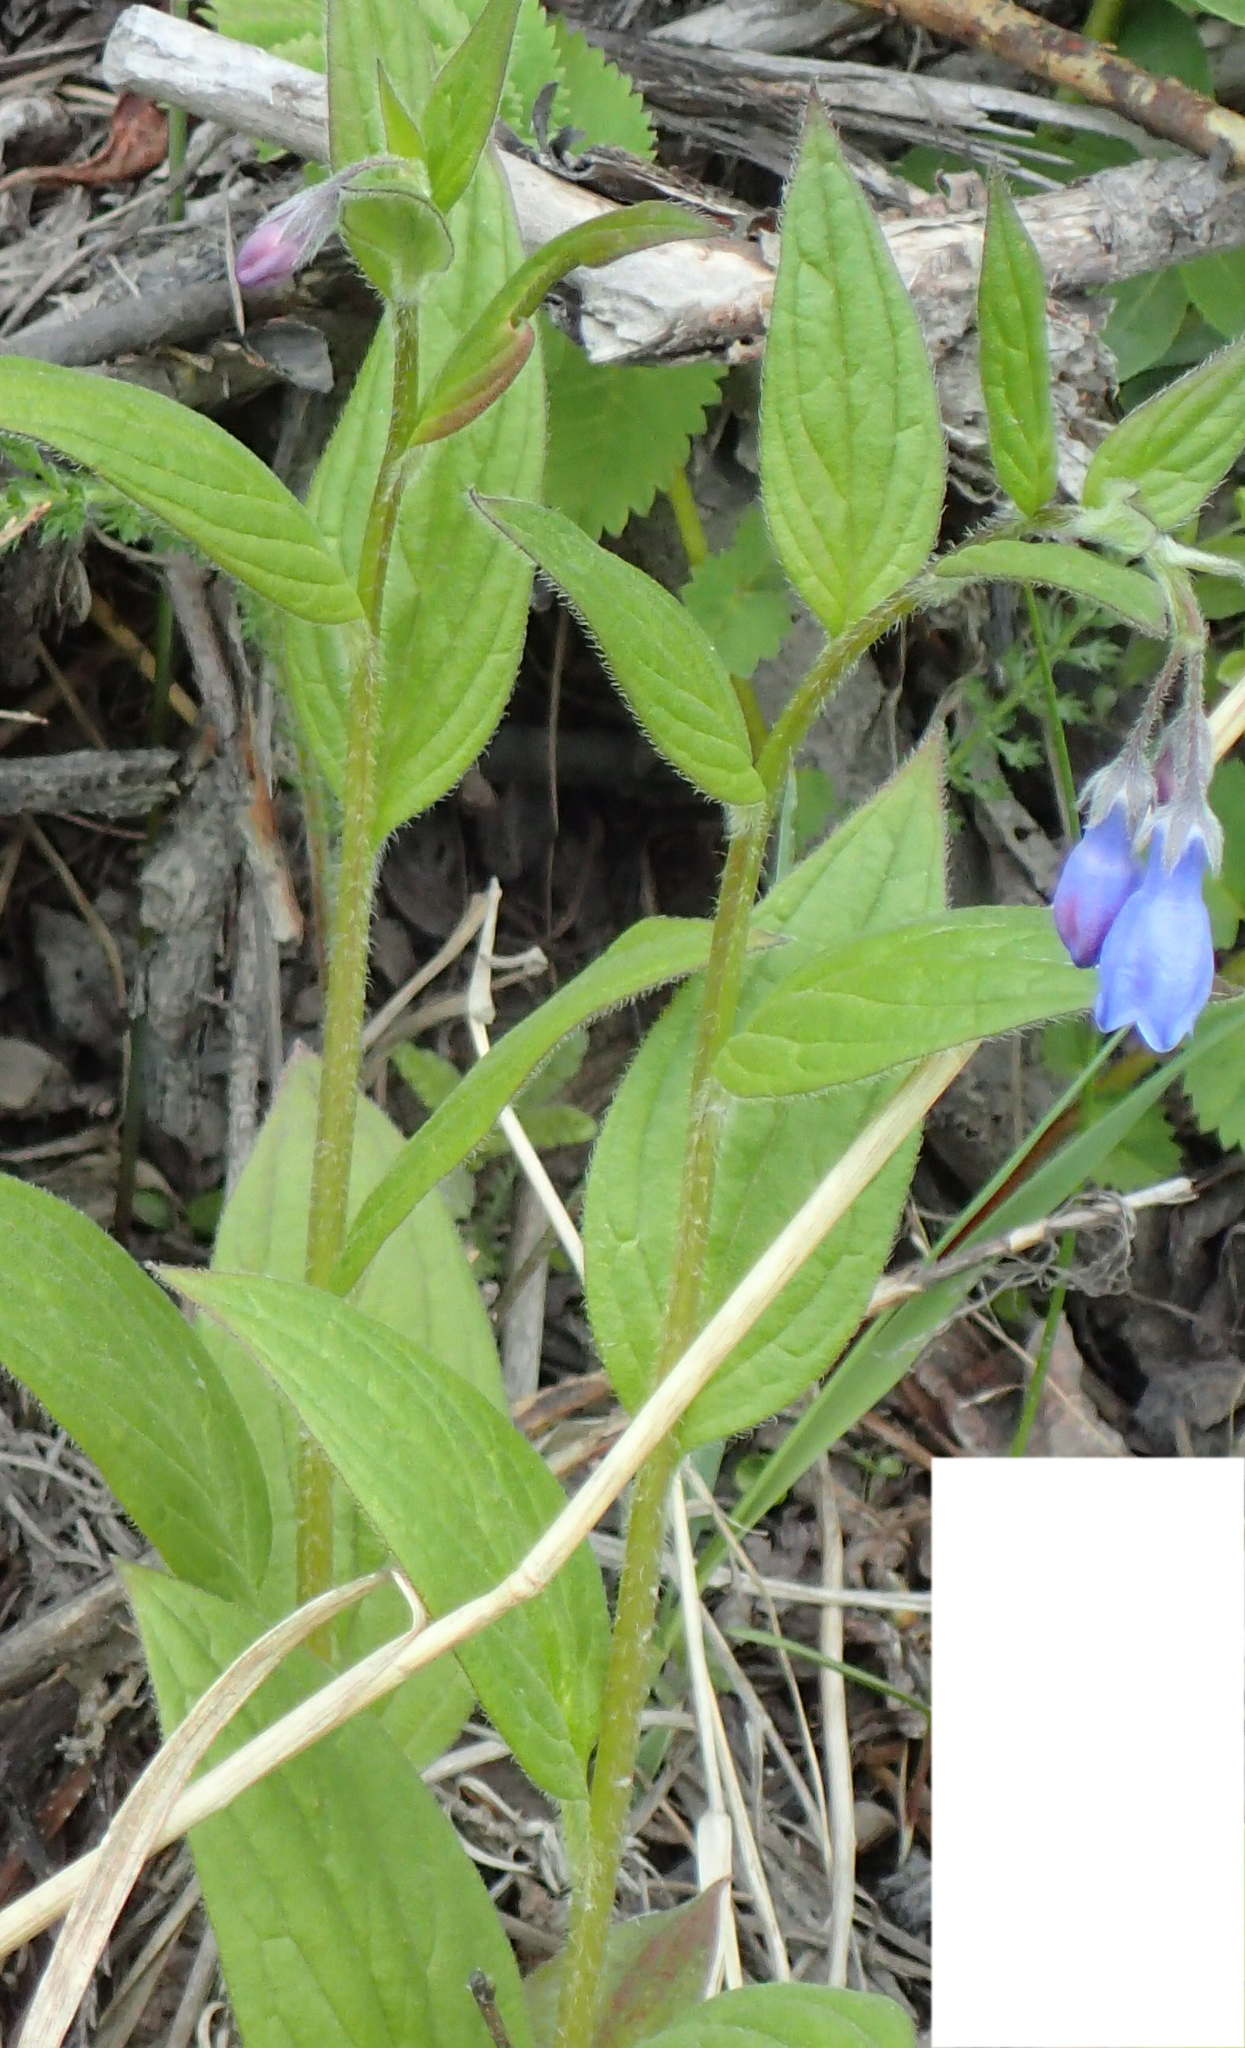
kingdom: Plantae
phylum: Tracheophyta
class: Magnoliopsida
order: Boraginales
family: Boraginaceae
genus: Mertensia
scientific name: Mertensia paniculata
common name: Panicled bluebells
